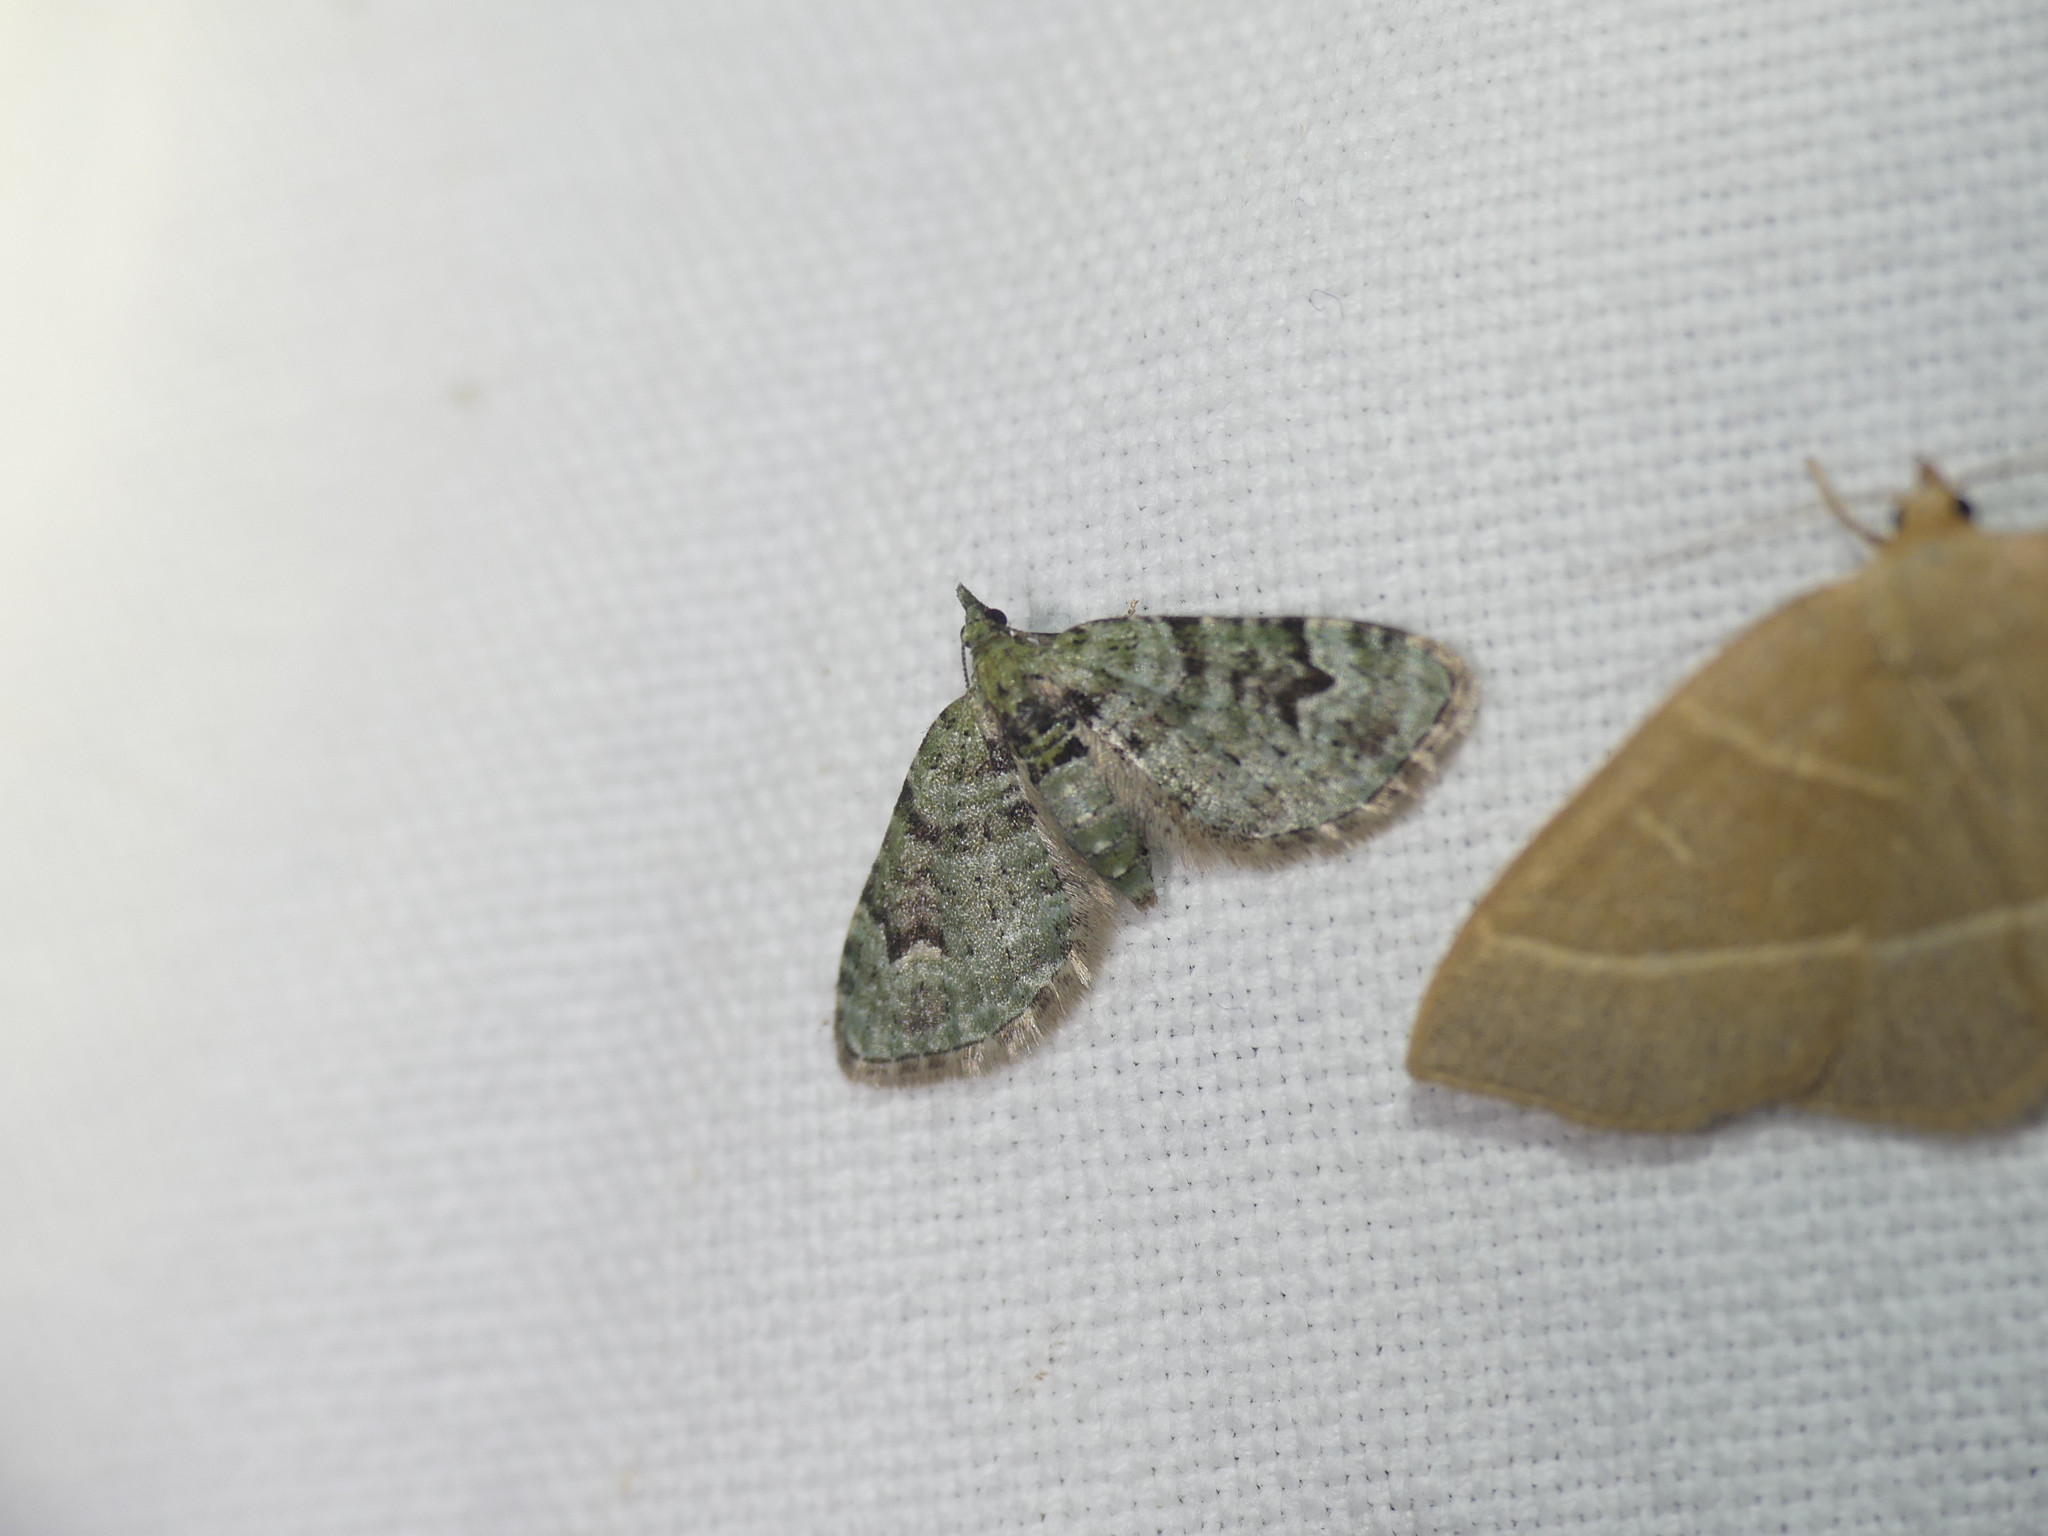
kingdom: Animalia
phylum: Arthropoda
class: Insecta
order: Lepidoptera
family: Geometridae
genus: Chloroclystis
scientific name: Chloroclystis v-ata
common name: V-pug
